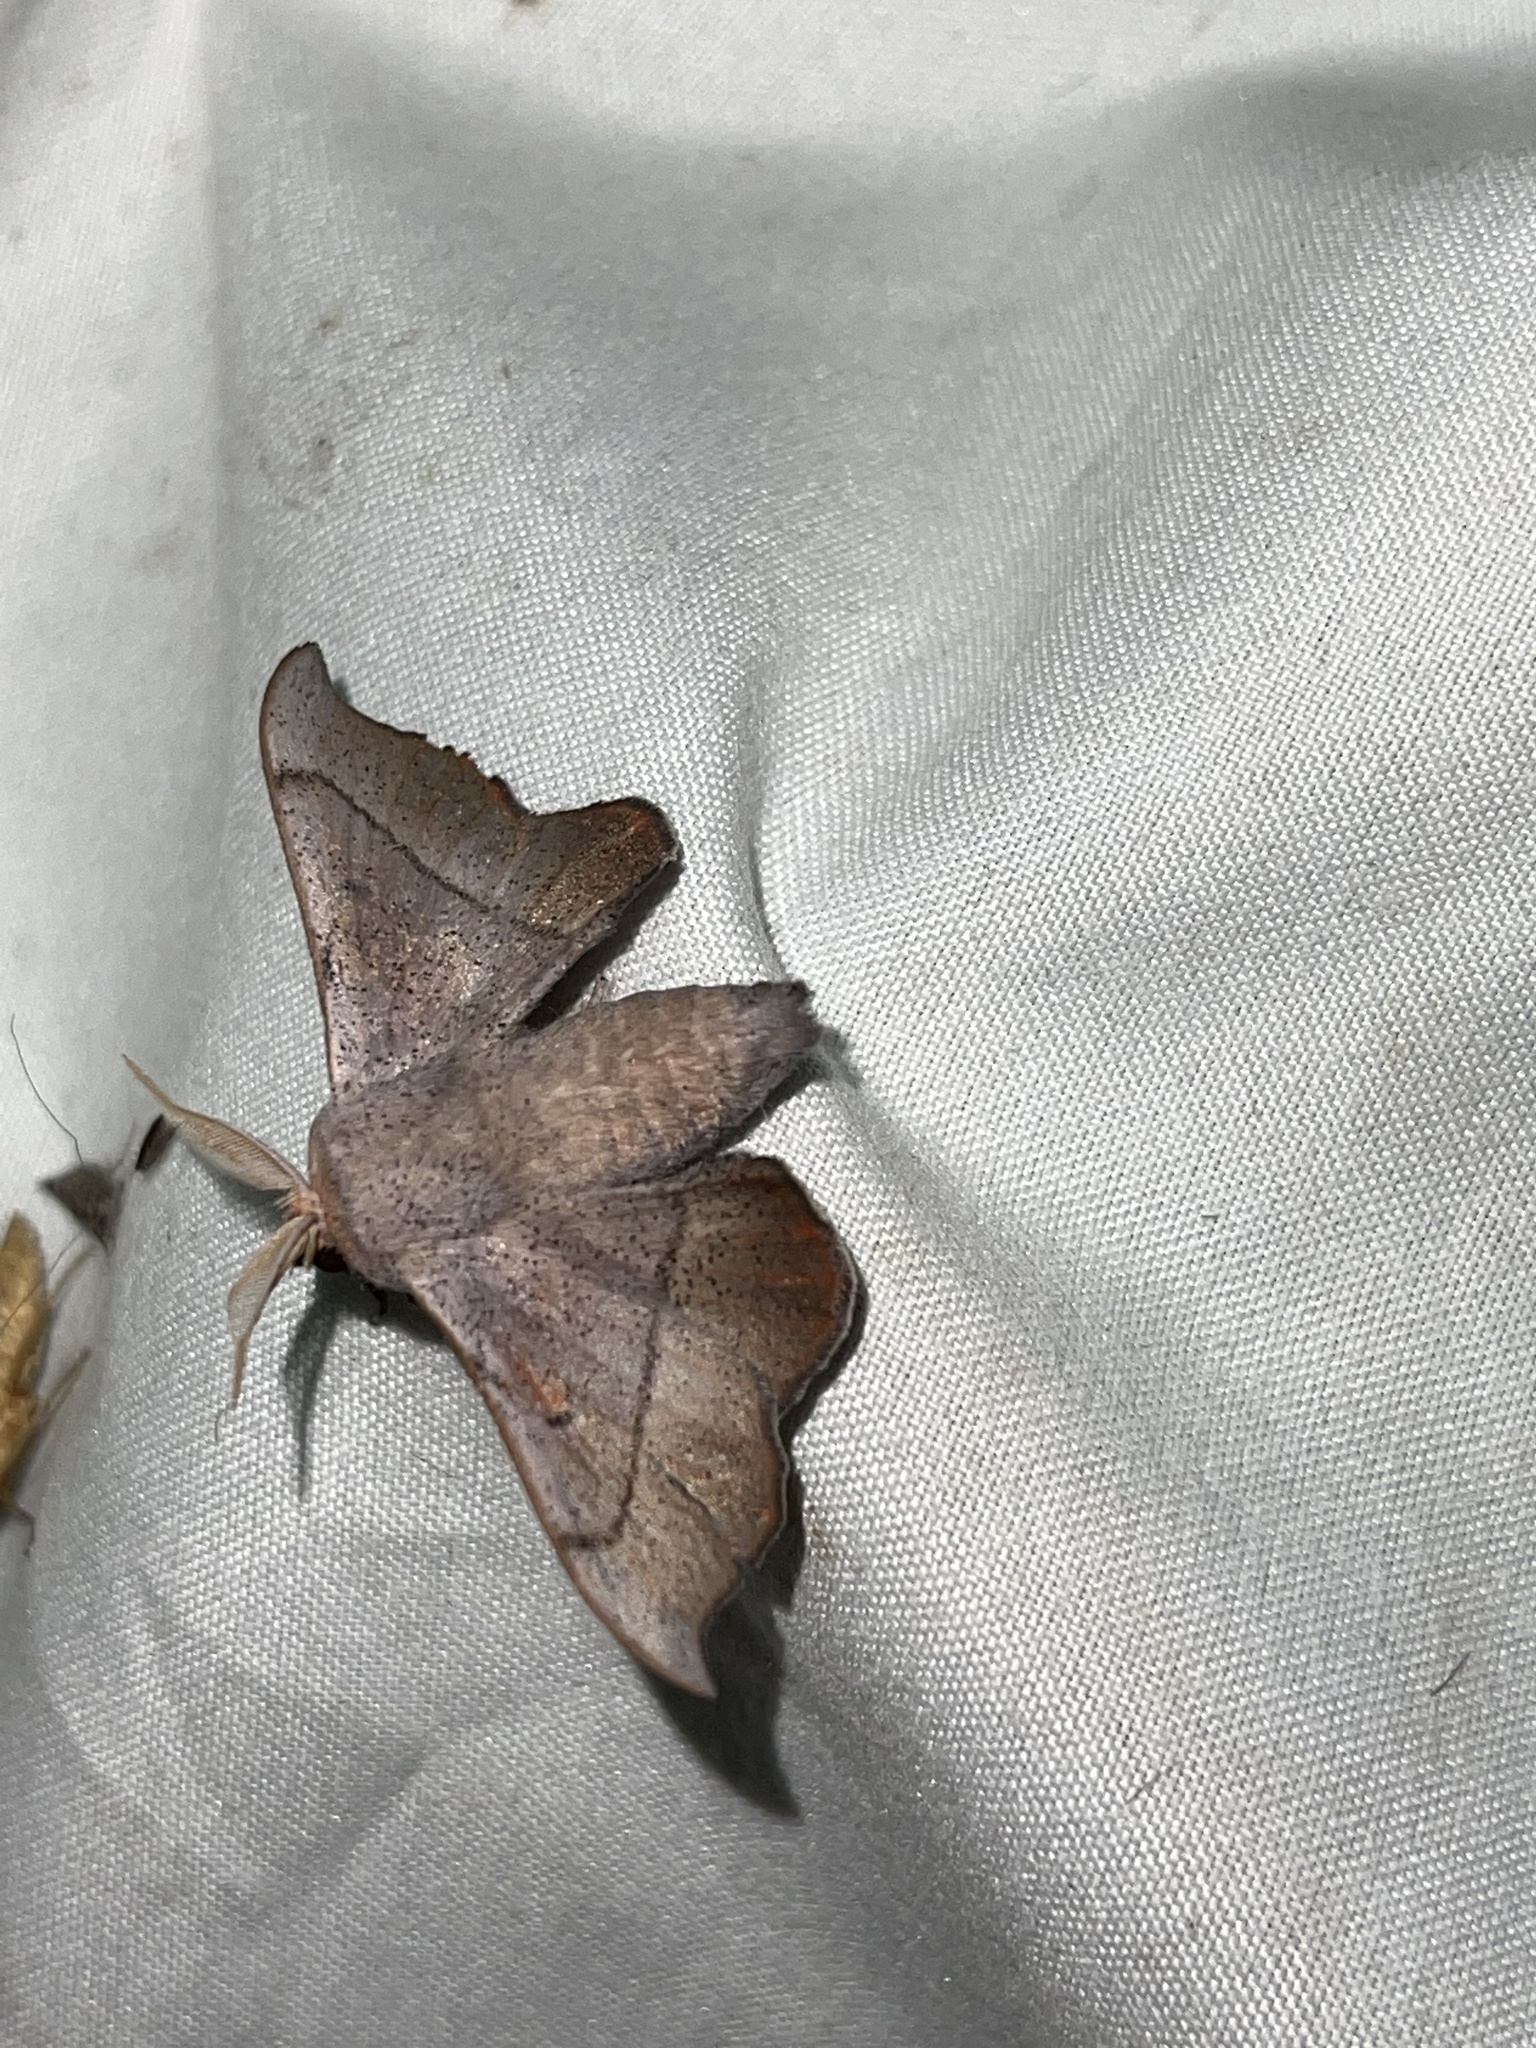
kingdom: Animalia
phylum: Arthropoda
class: Insecta
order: Lepidoptera
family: Mimallonidae
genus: Cicinnus
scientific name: Cicinnus melsheimeri
